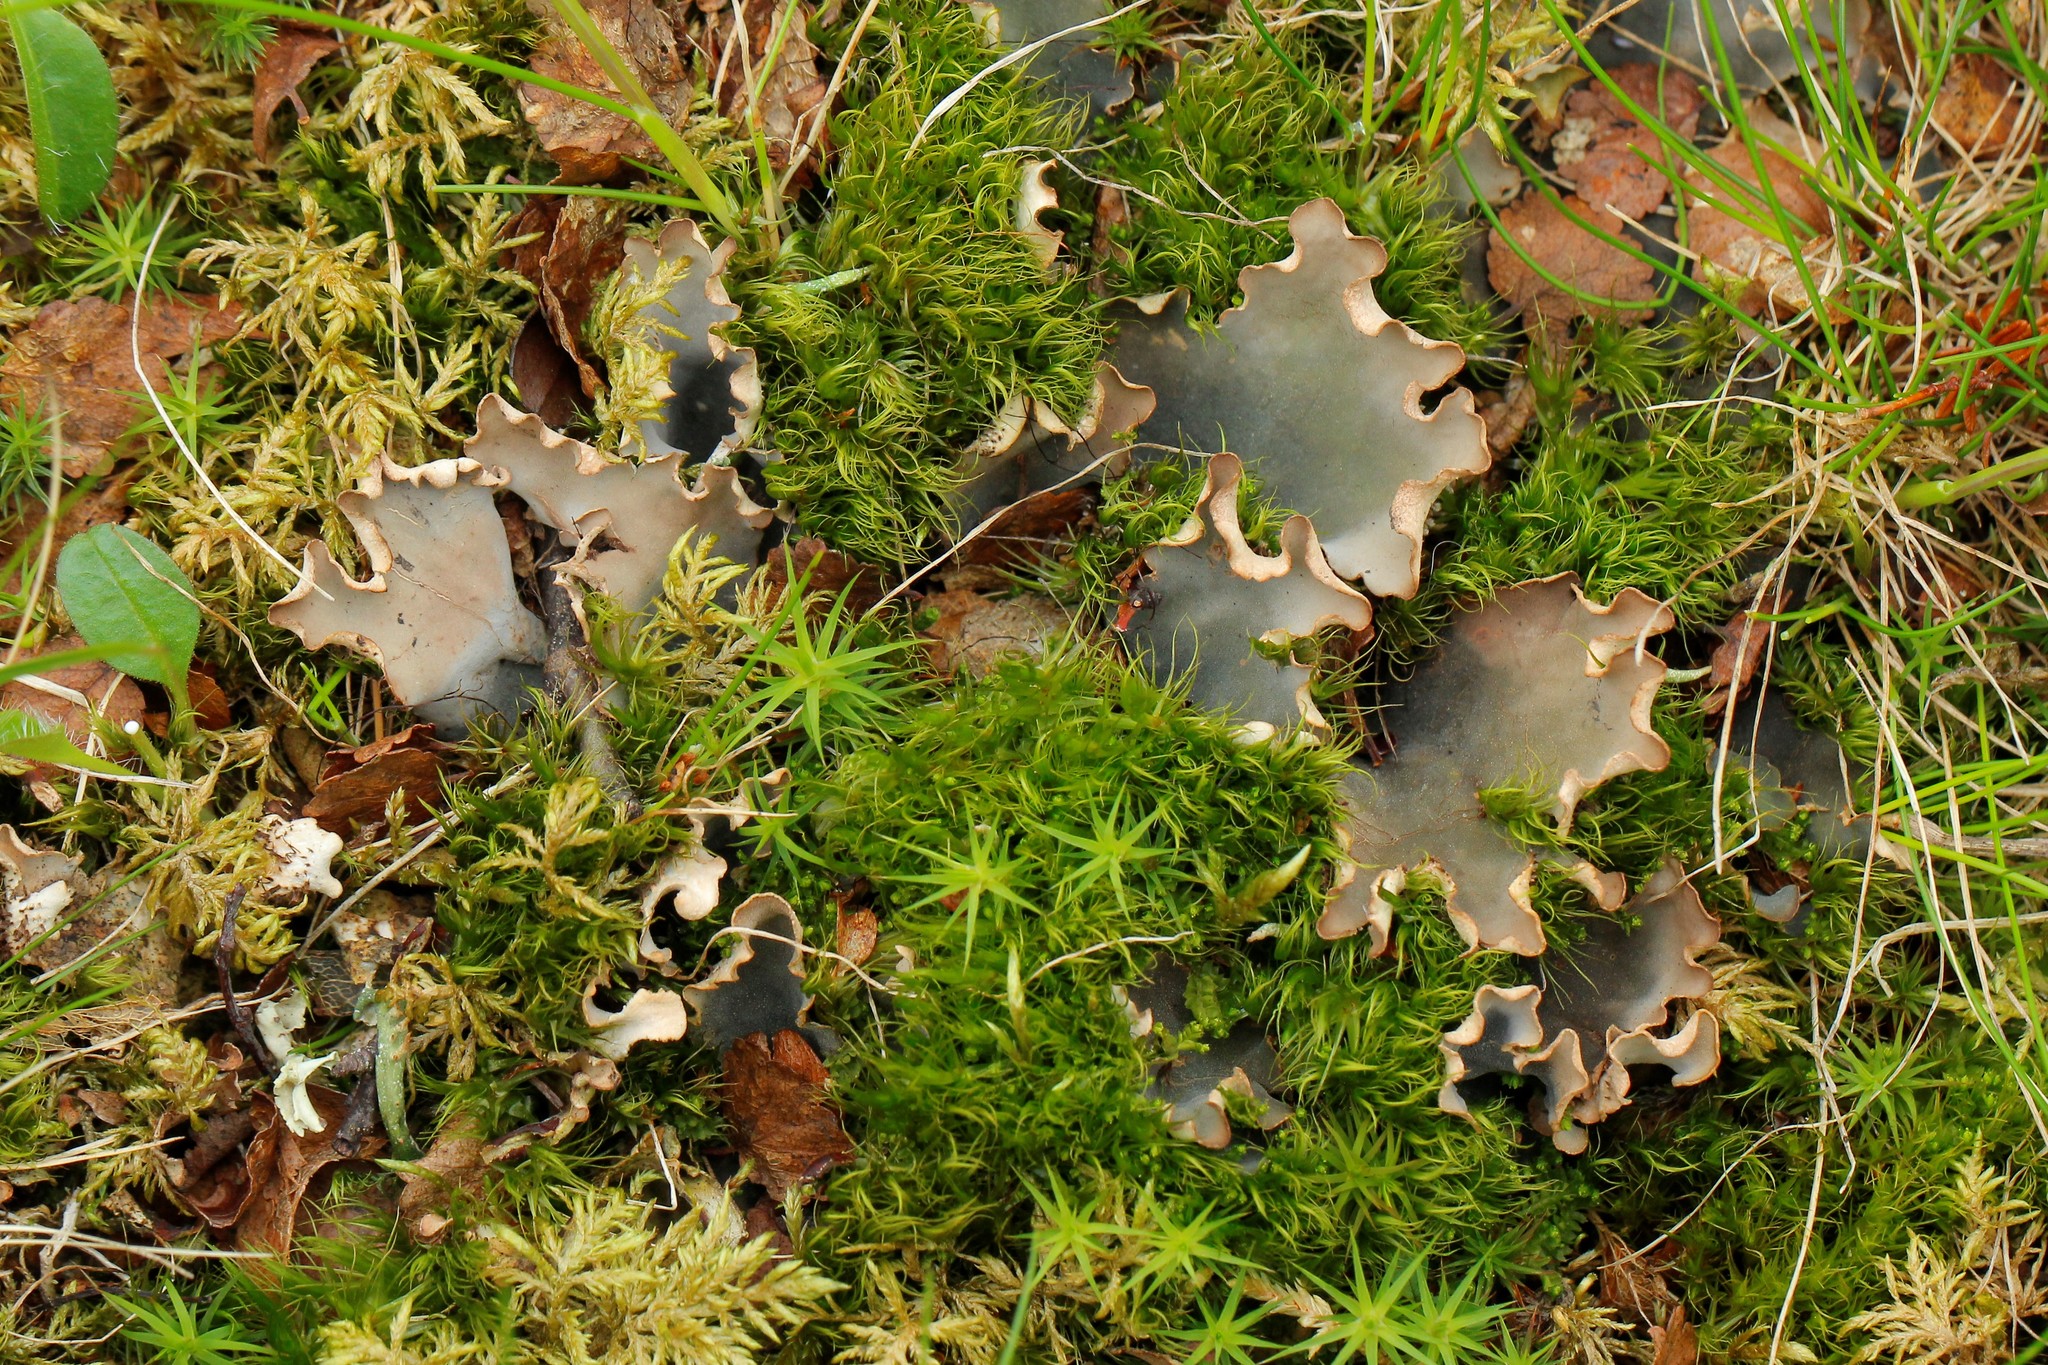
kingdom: Fungi
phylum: Ascomycota
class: Lecanoromycetes
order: Peltigerales
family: Peltigeraceae
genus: Peltigera
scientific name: Peltigera scabrosa
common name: Greater toad pelt lichen
